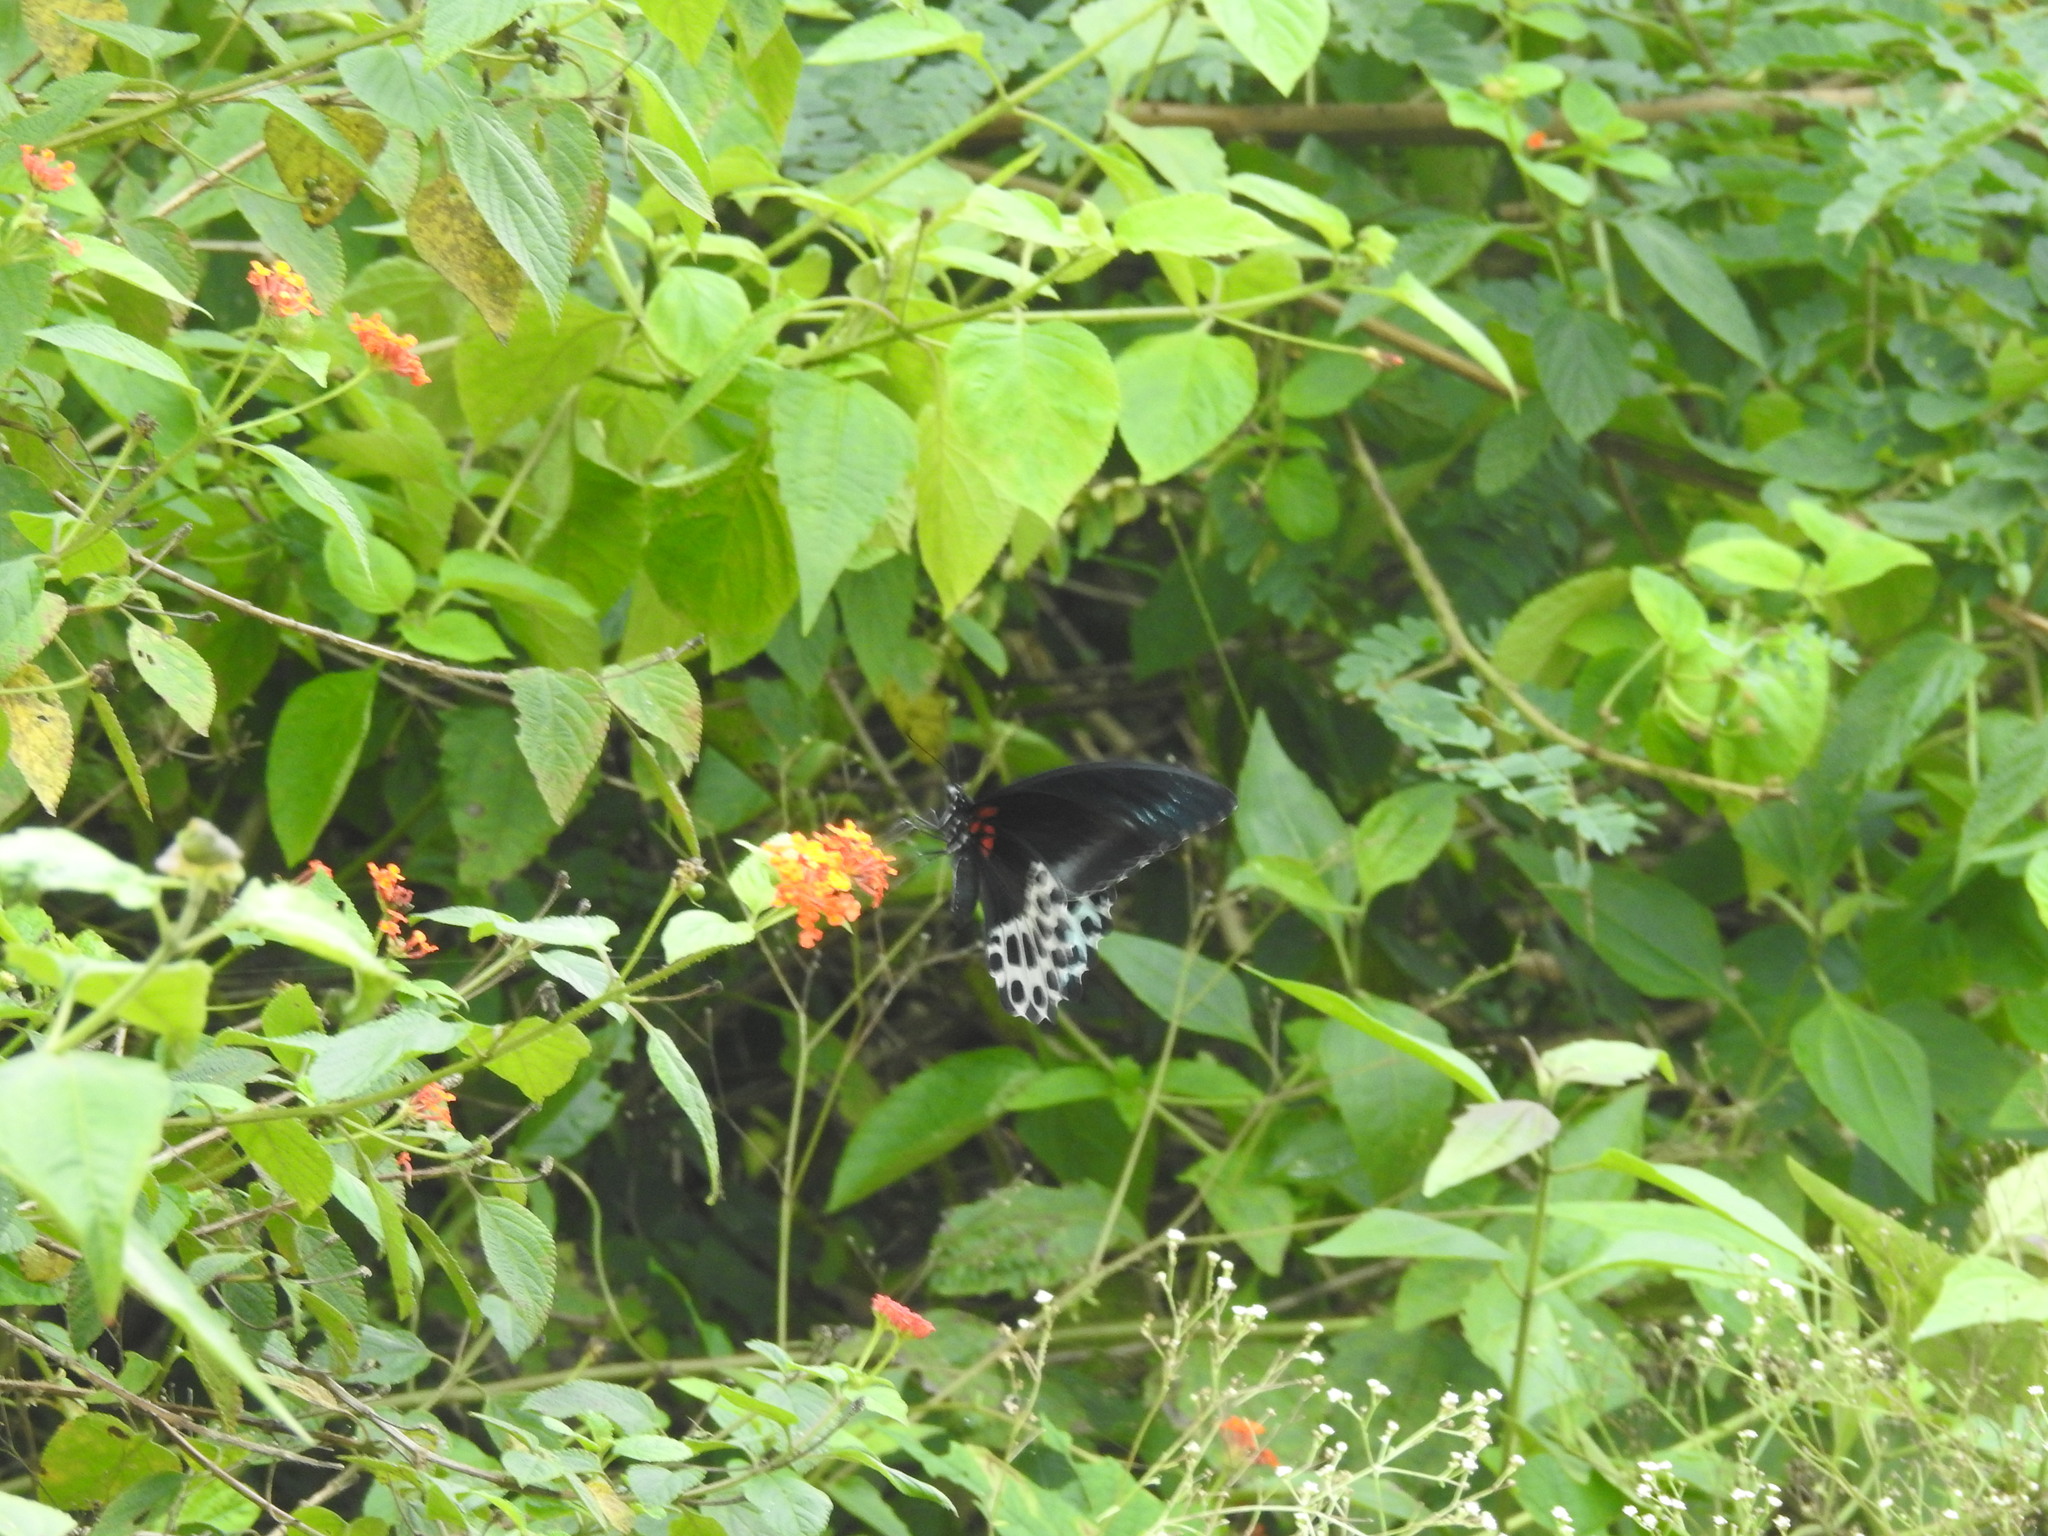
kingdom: Animalia
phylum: Arthropoda
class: Insecta
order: Lepidoptera
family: Papilionidae
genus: Papilio
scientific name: Papilio memnon
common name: Great mormon
